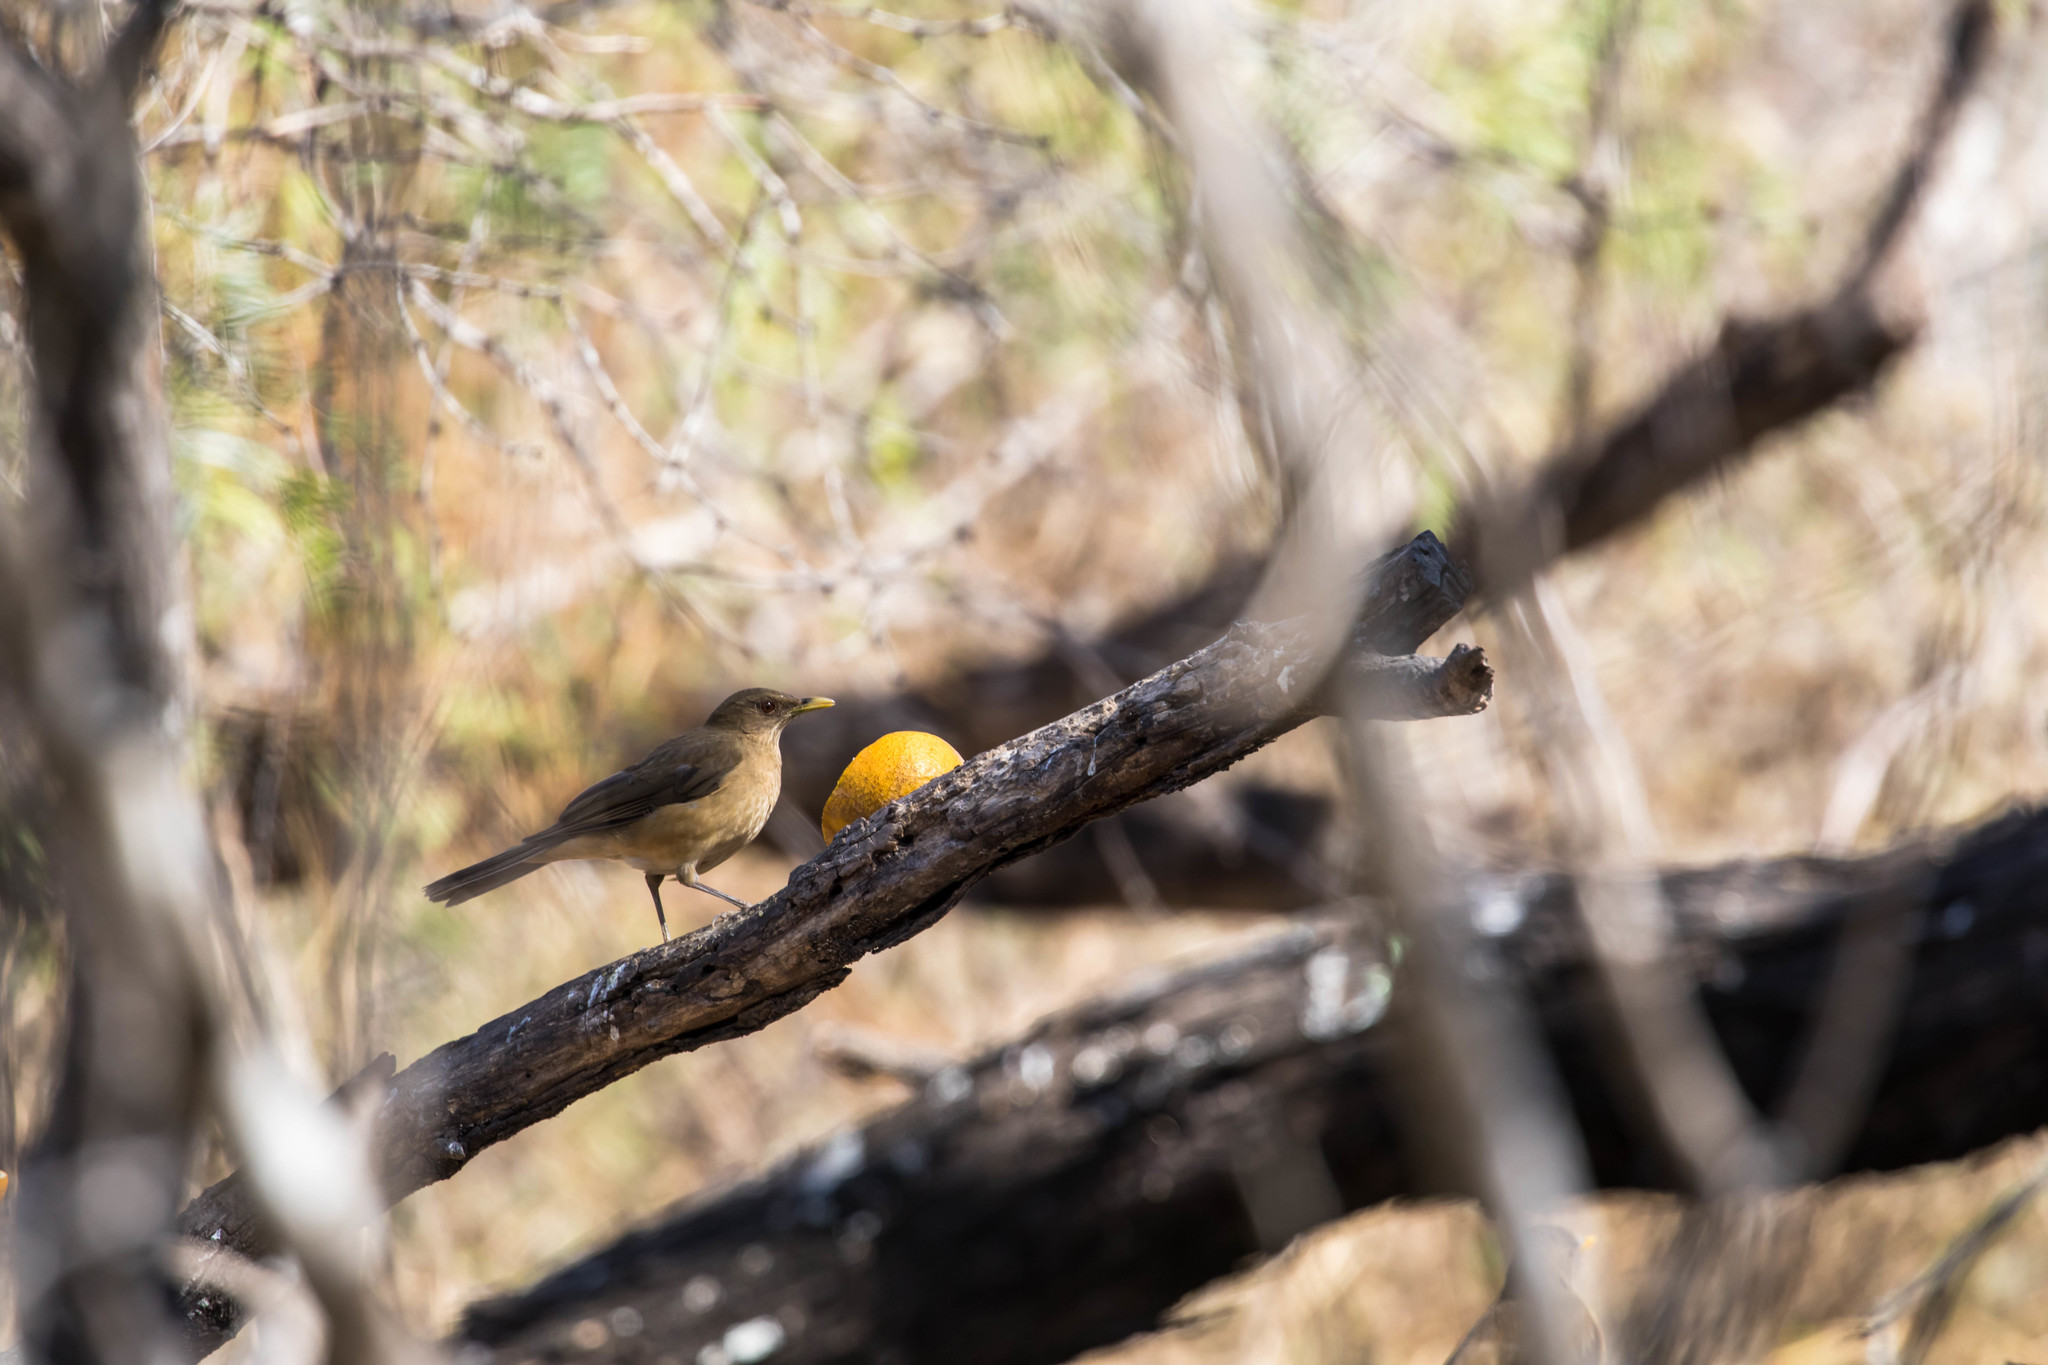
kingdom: Animalia
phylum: Chordata
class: Aves
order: Passeriformes
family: Turdidae
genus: Turdus
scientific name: Turdus grayi
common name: Clay-colored thrush
